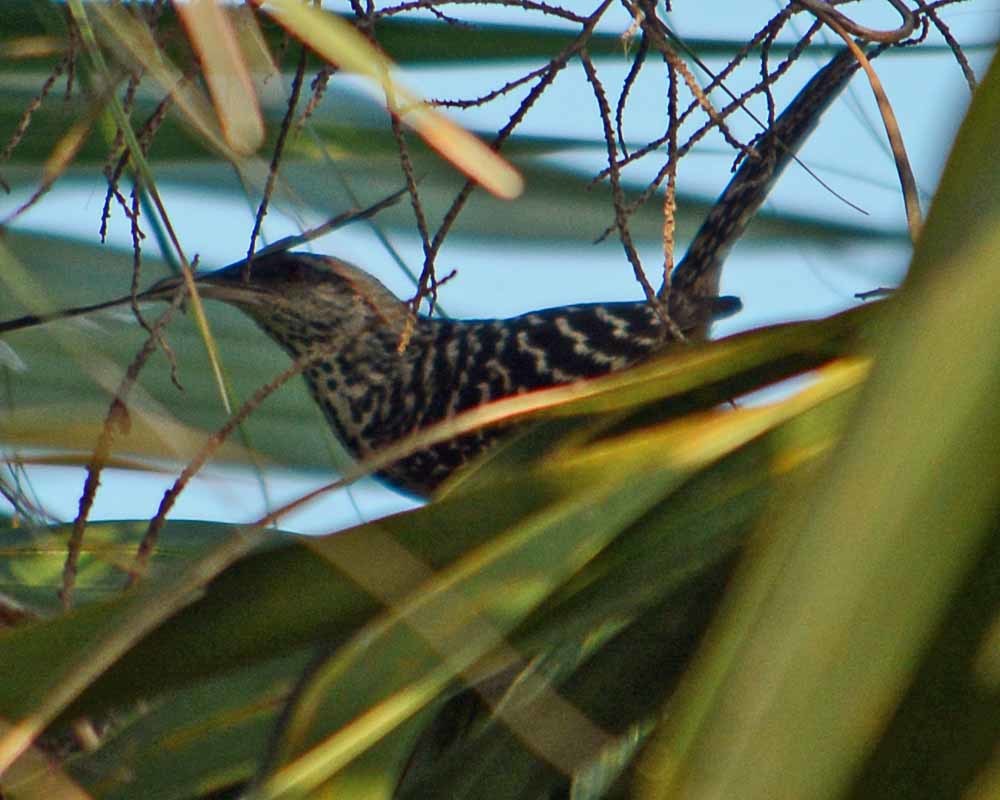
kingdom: Animalia
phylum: Chordata
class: Aves
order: Passeriformes
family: Troglodytidae
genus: Campylorhynchus
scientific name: Campylorhynchus zonatus
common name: Band-backed wren
